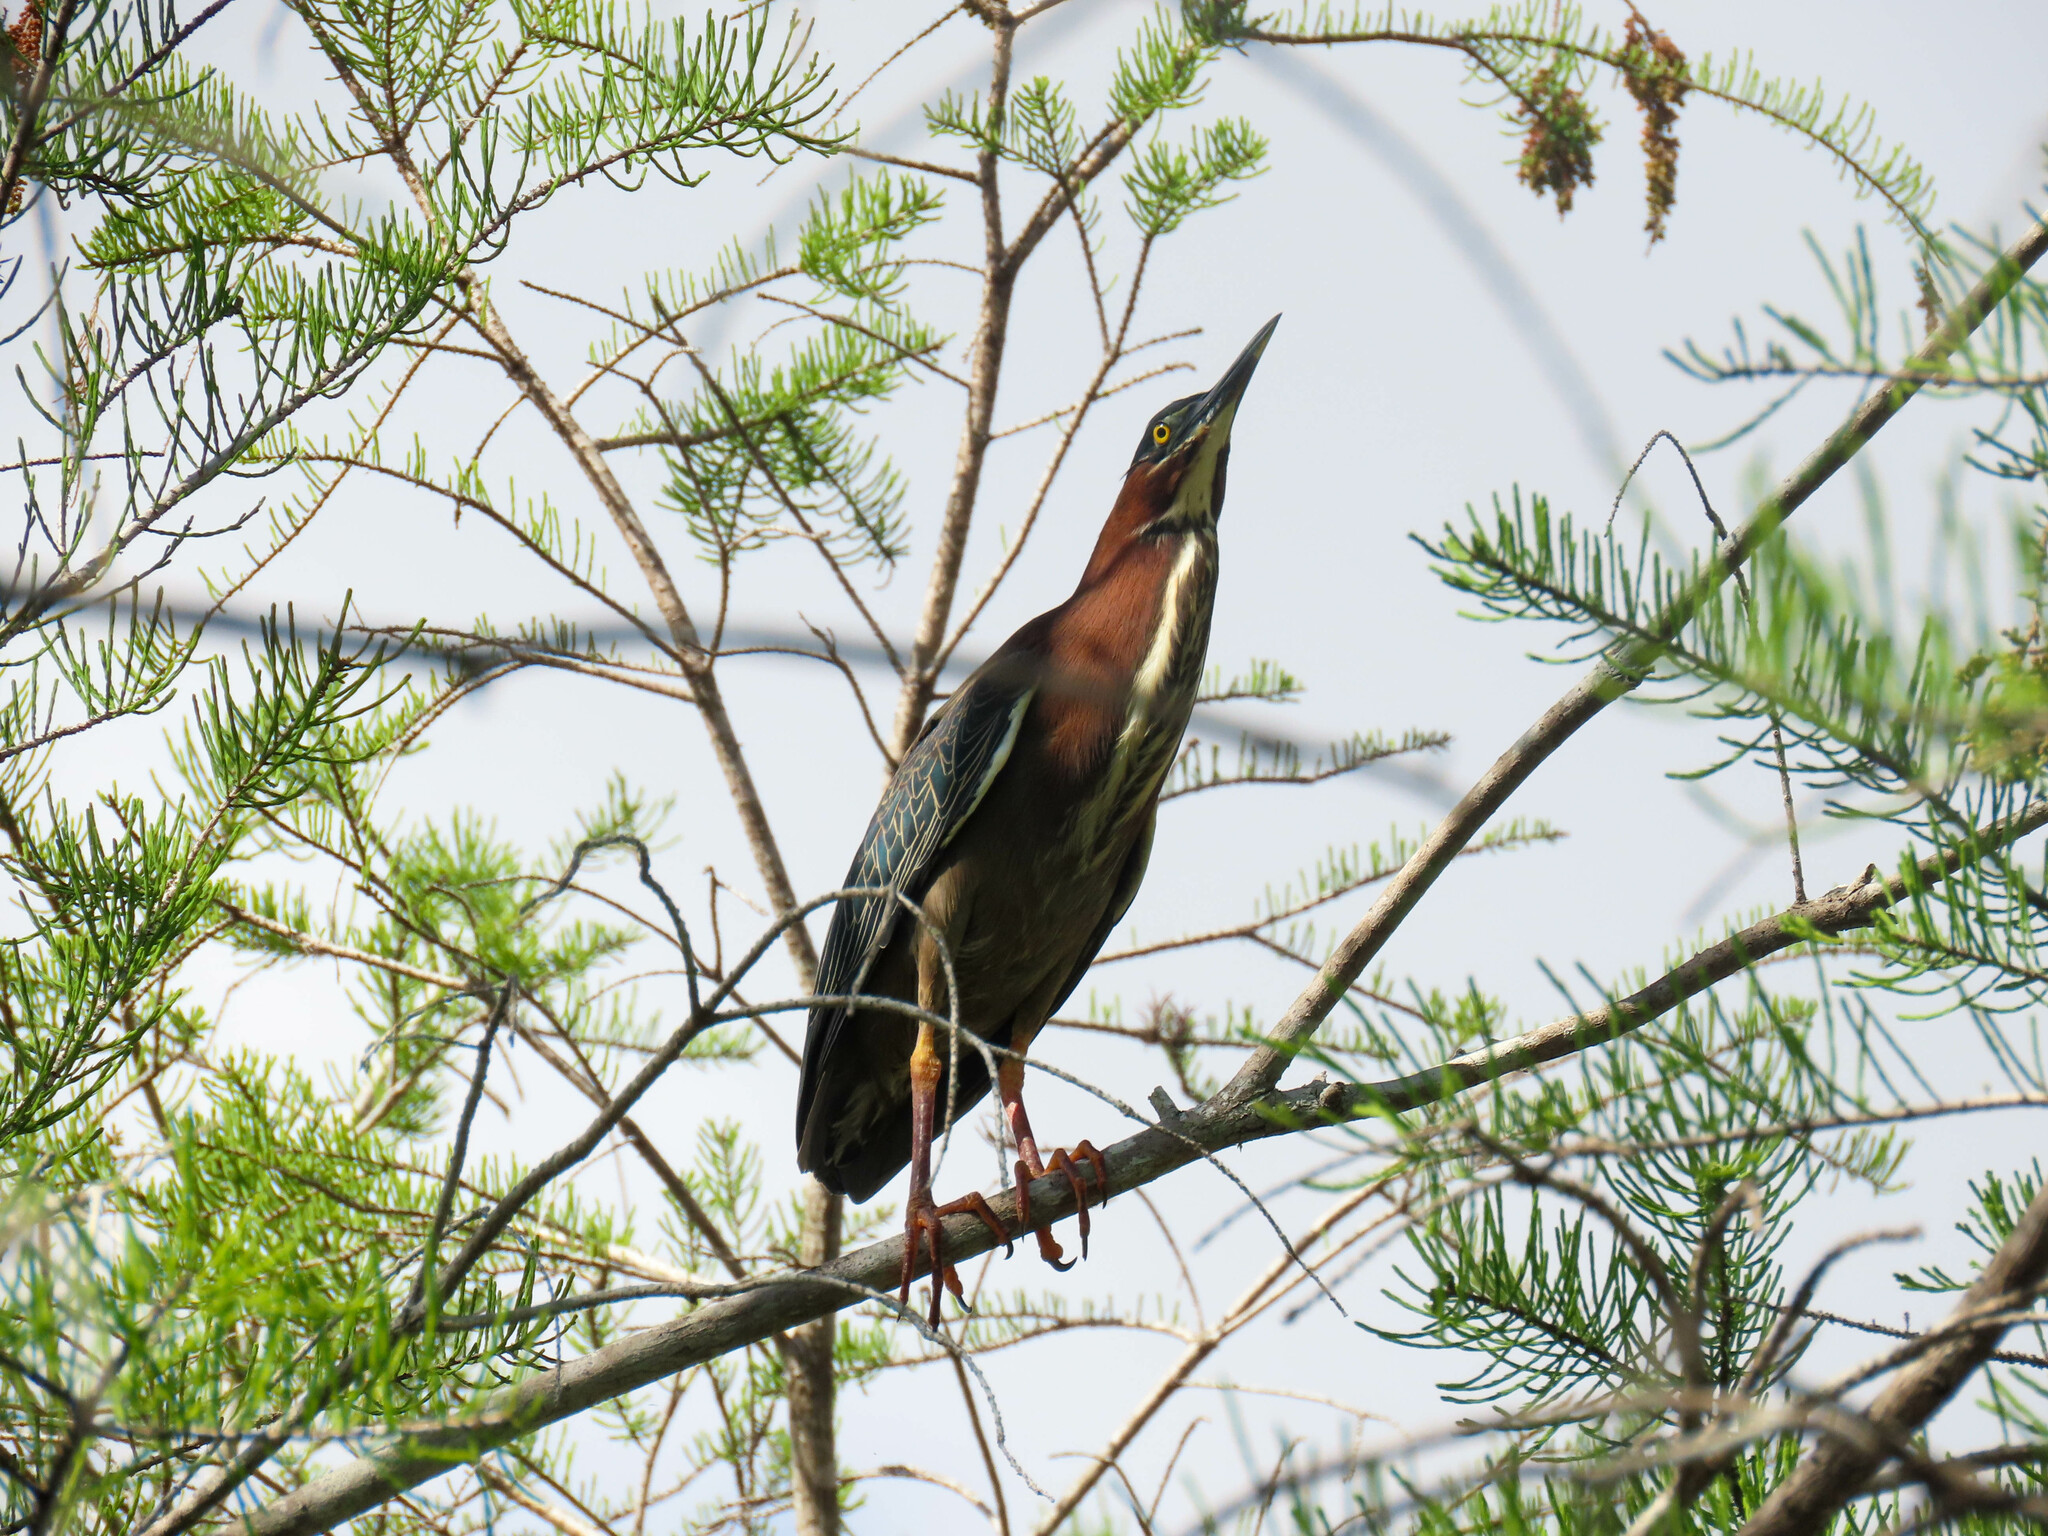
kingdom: Animalia
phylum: Chordata
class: Aves
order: Pelecaniformes
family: Ardeidae
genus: Butorides
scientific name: Butorides virescens
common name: Green heron
